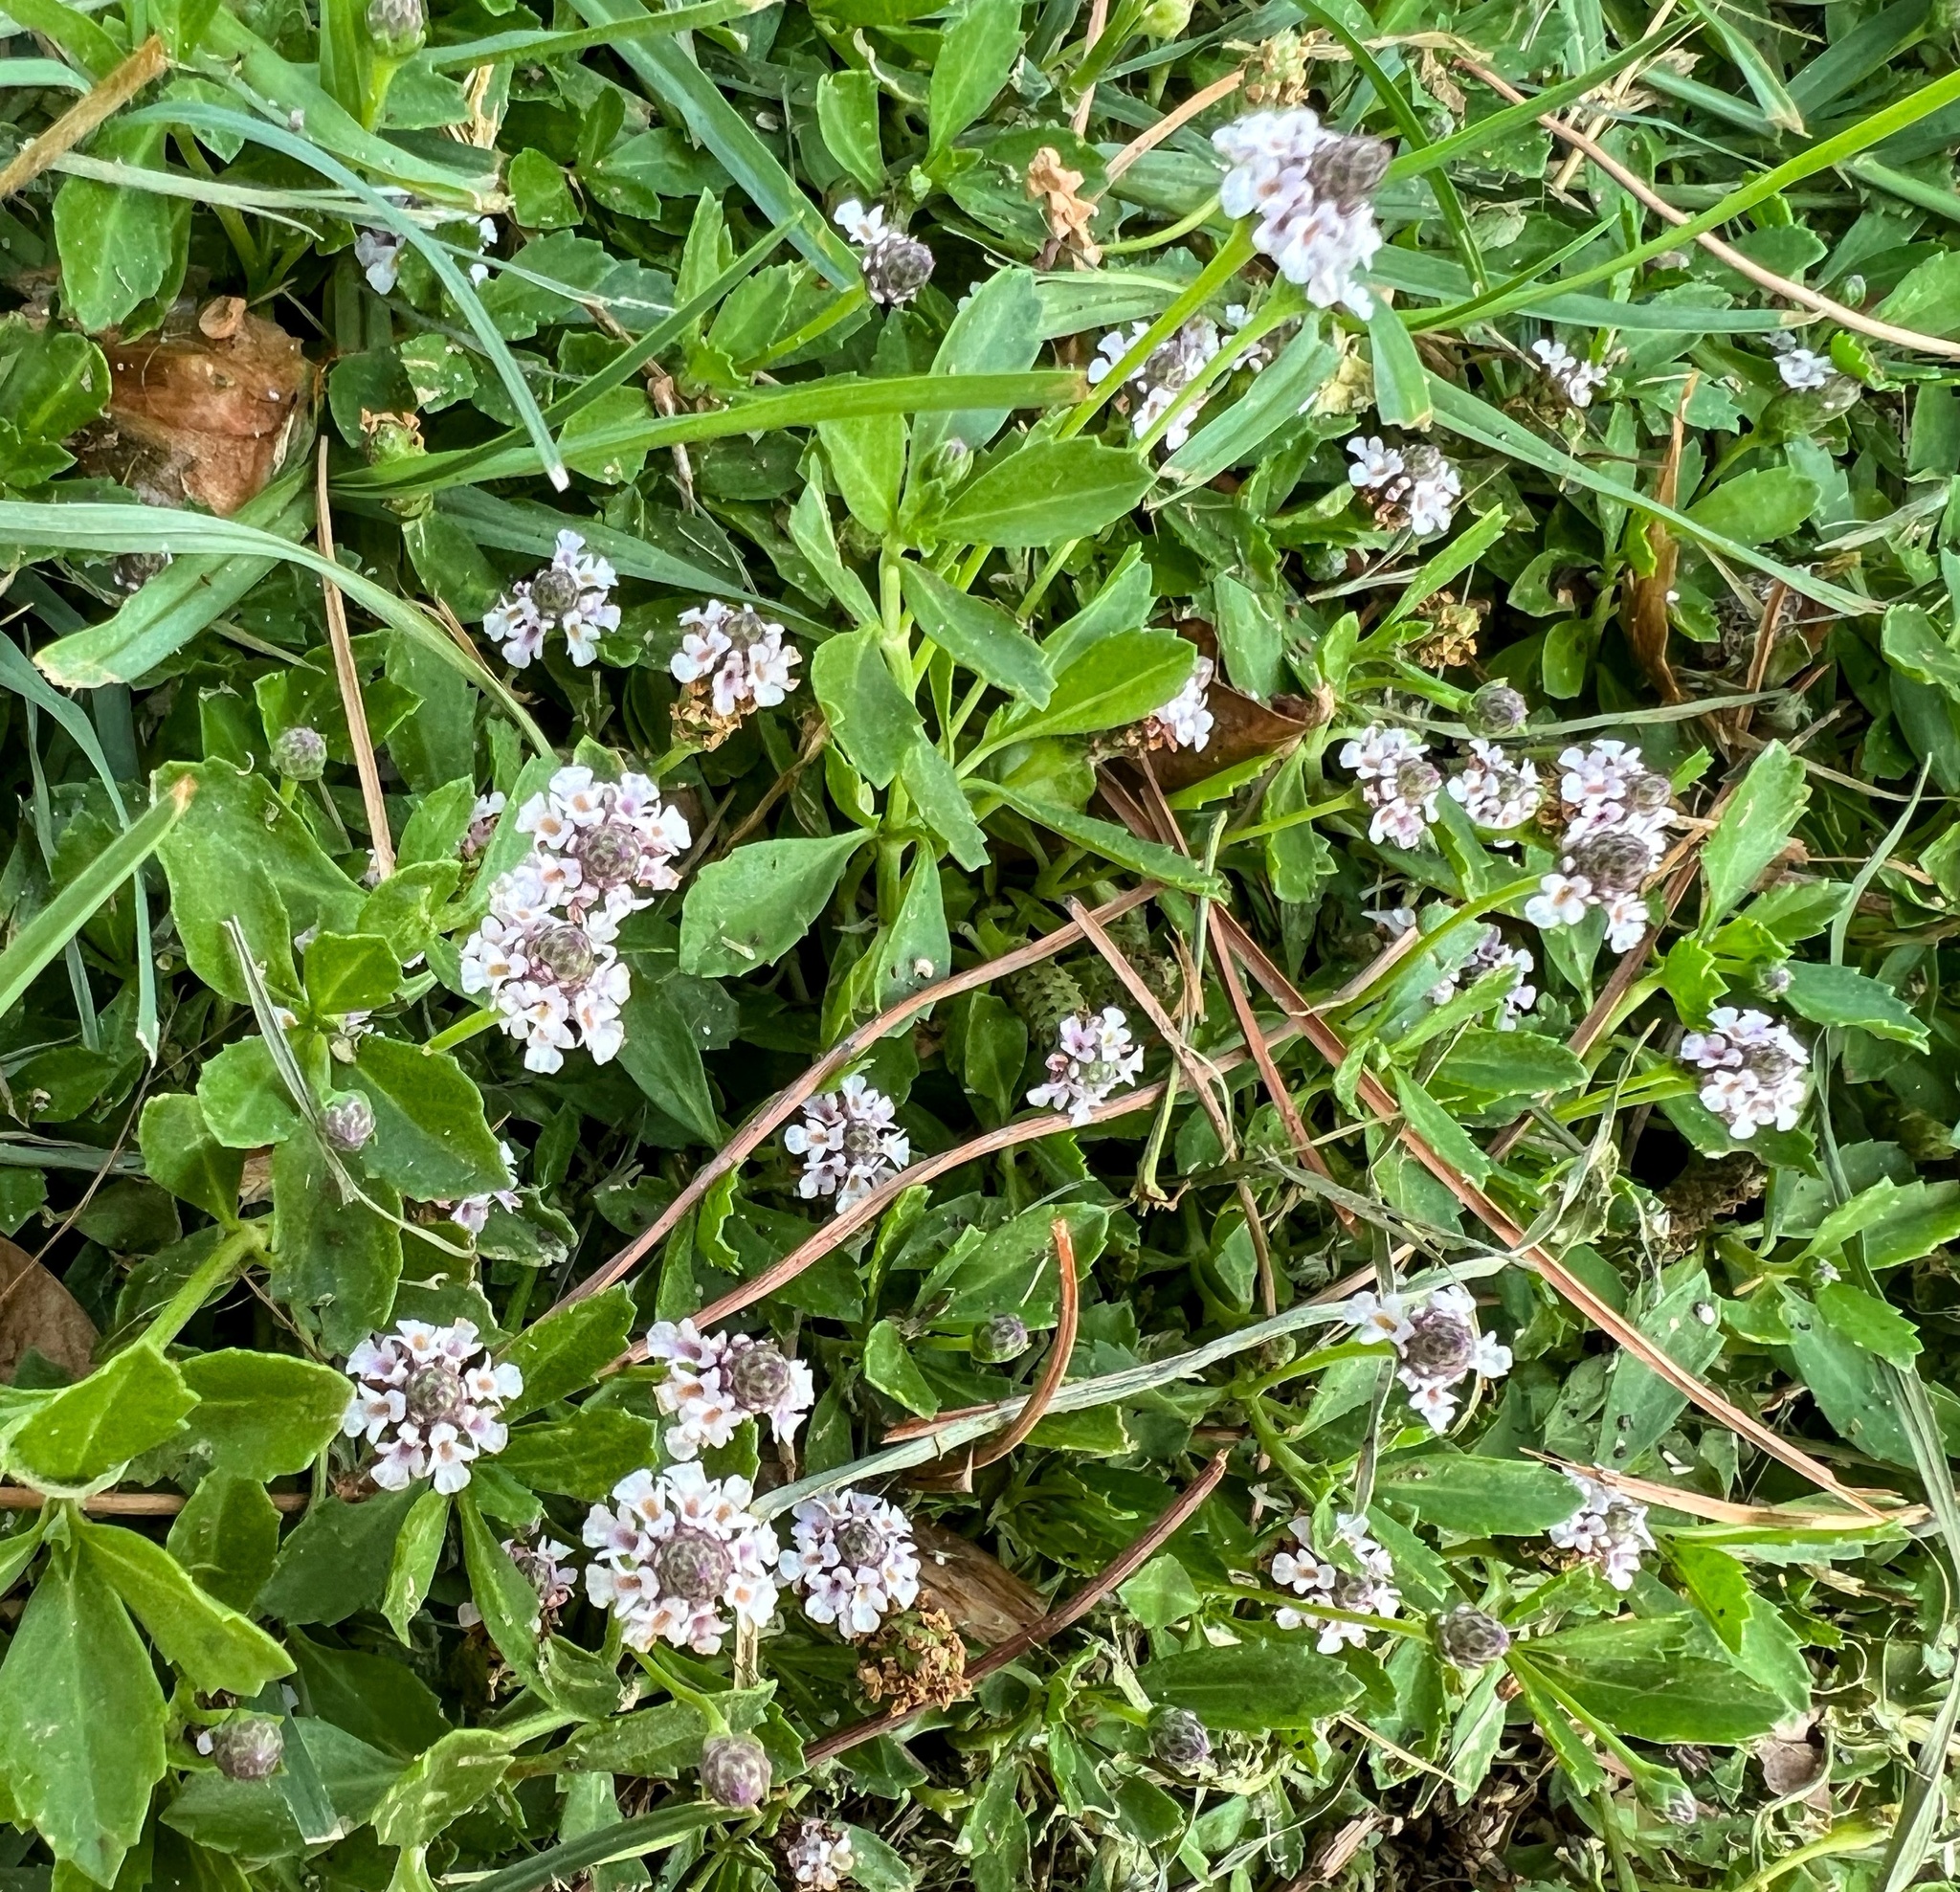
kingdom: Plantae
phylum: Tracheophyta
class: Magnoliopsida
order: Lamiales
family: Verbenaceae
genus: Phyla
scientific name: Phyla nodiflora
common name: Frogfruit
